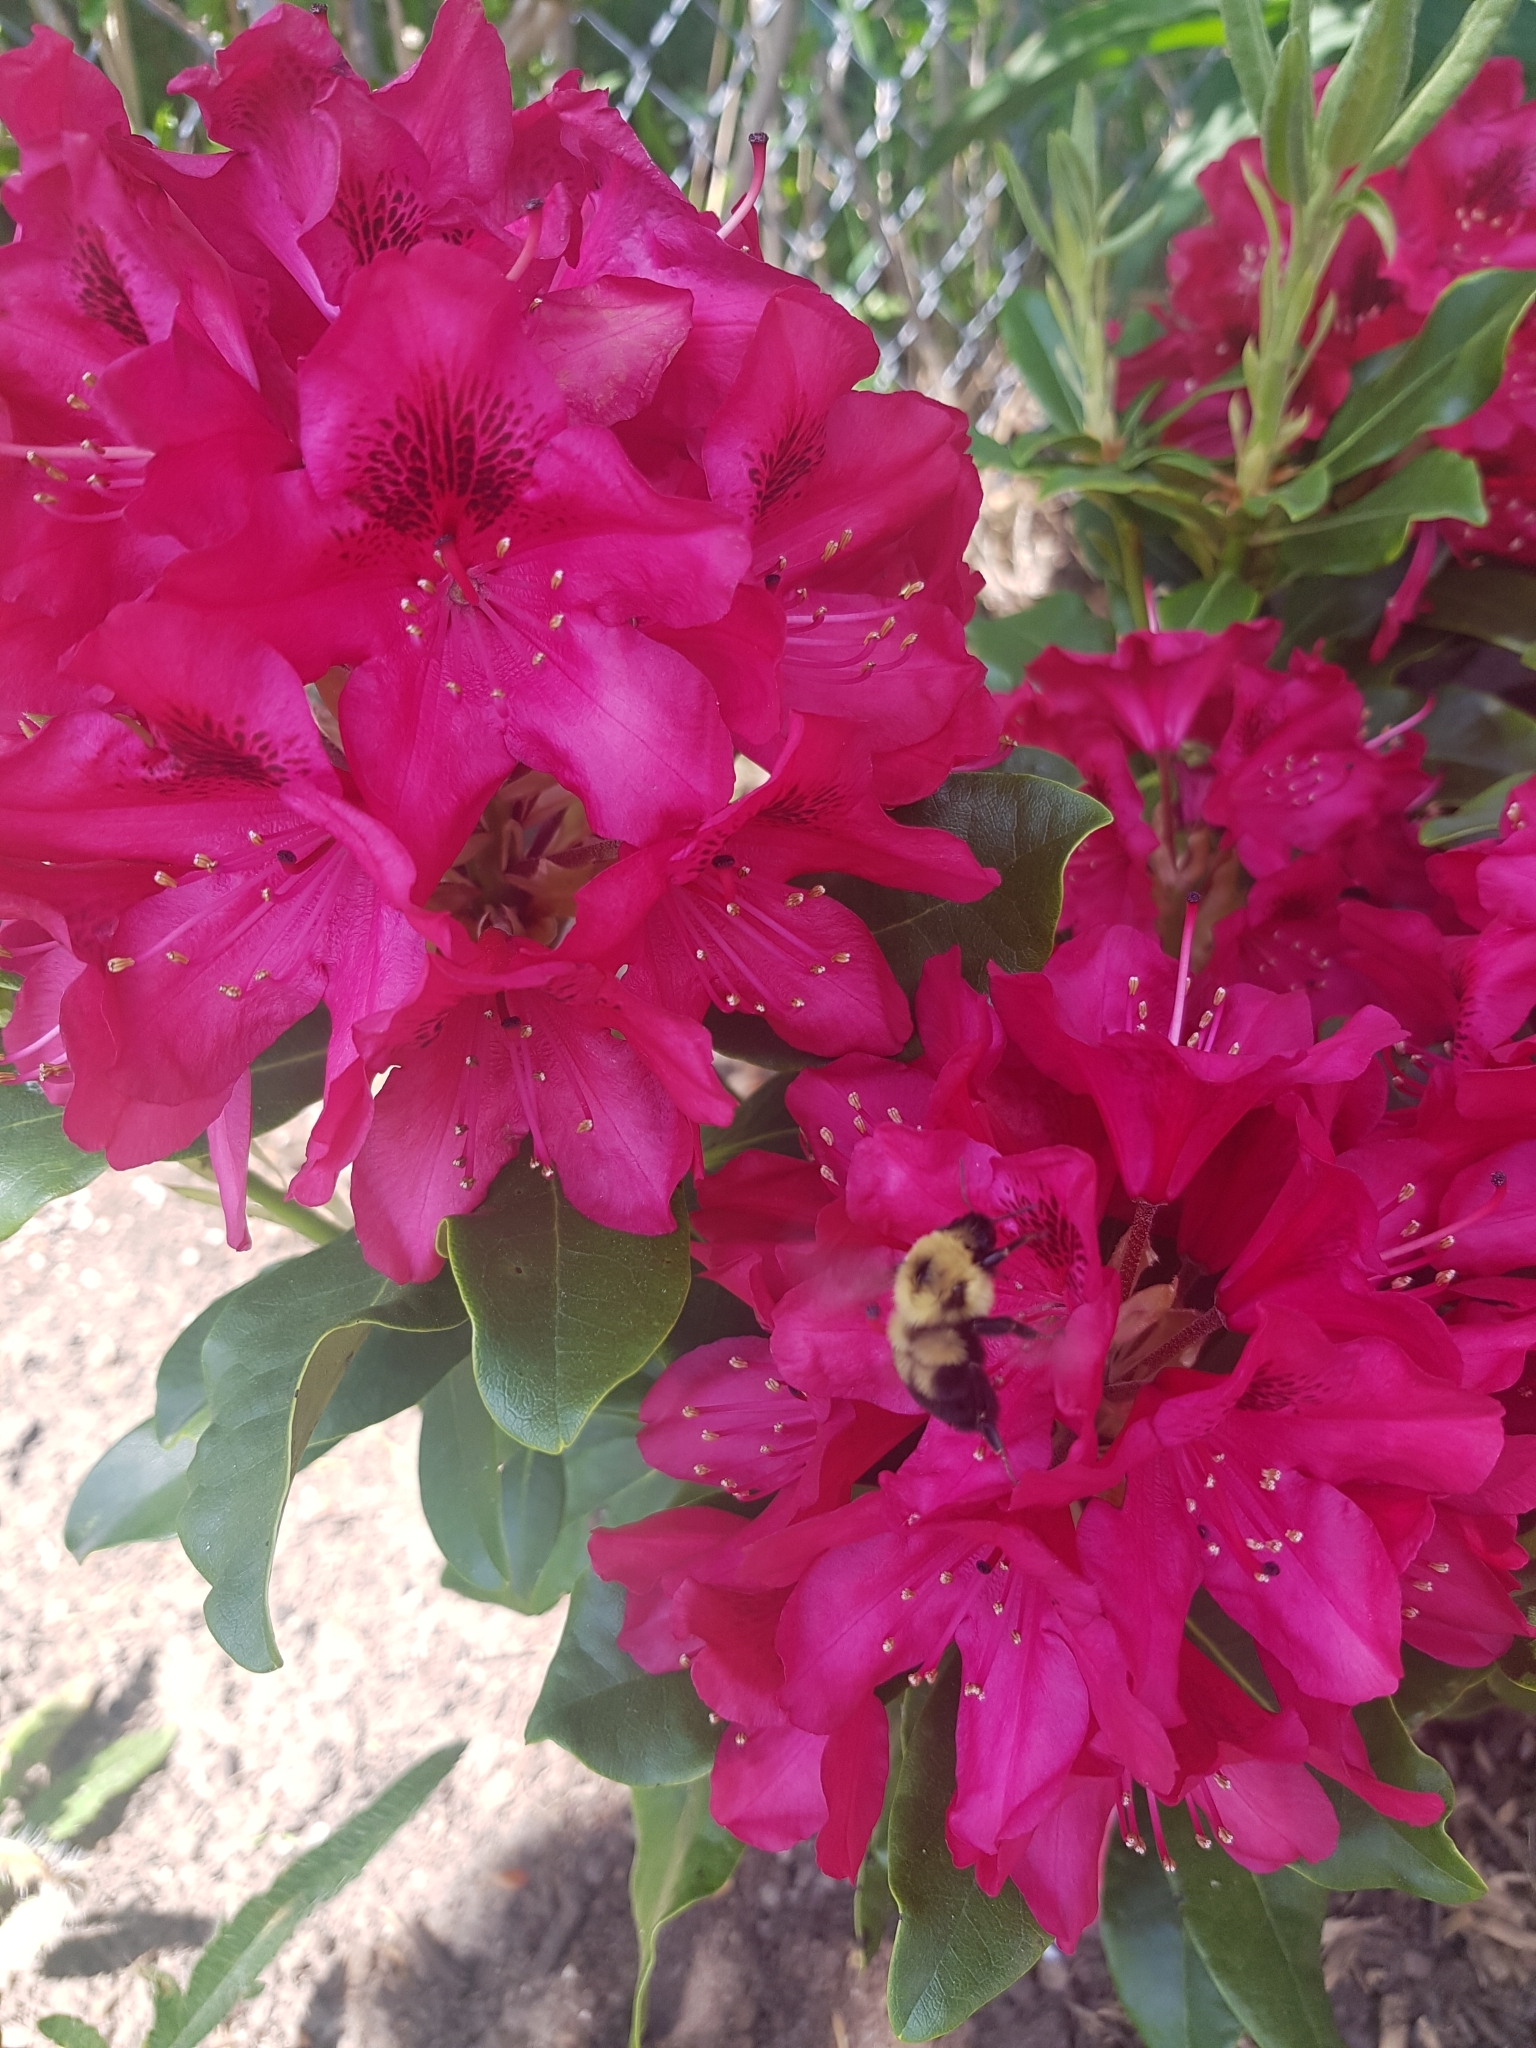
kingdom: Animalia
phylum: Arthropoda
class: Insecta
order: Hymenoptera
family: Apidae
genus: Bombus
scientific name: Bombus bimaculatus
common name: Two-spotted bumble bee
